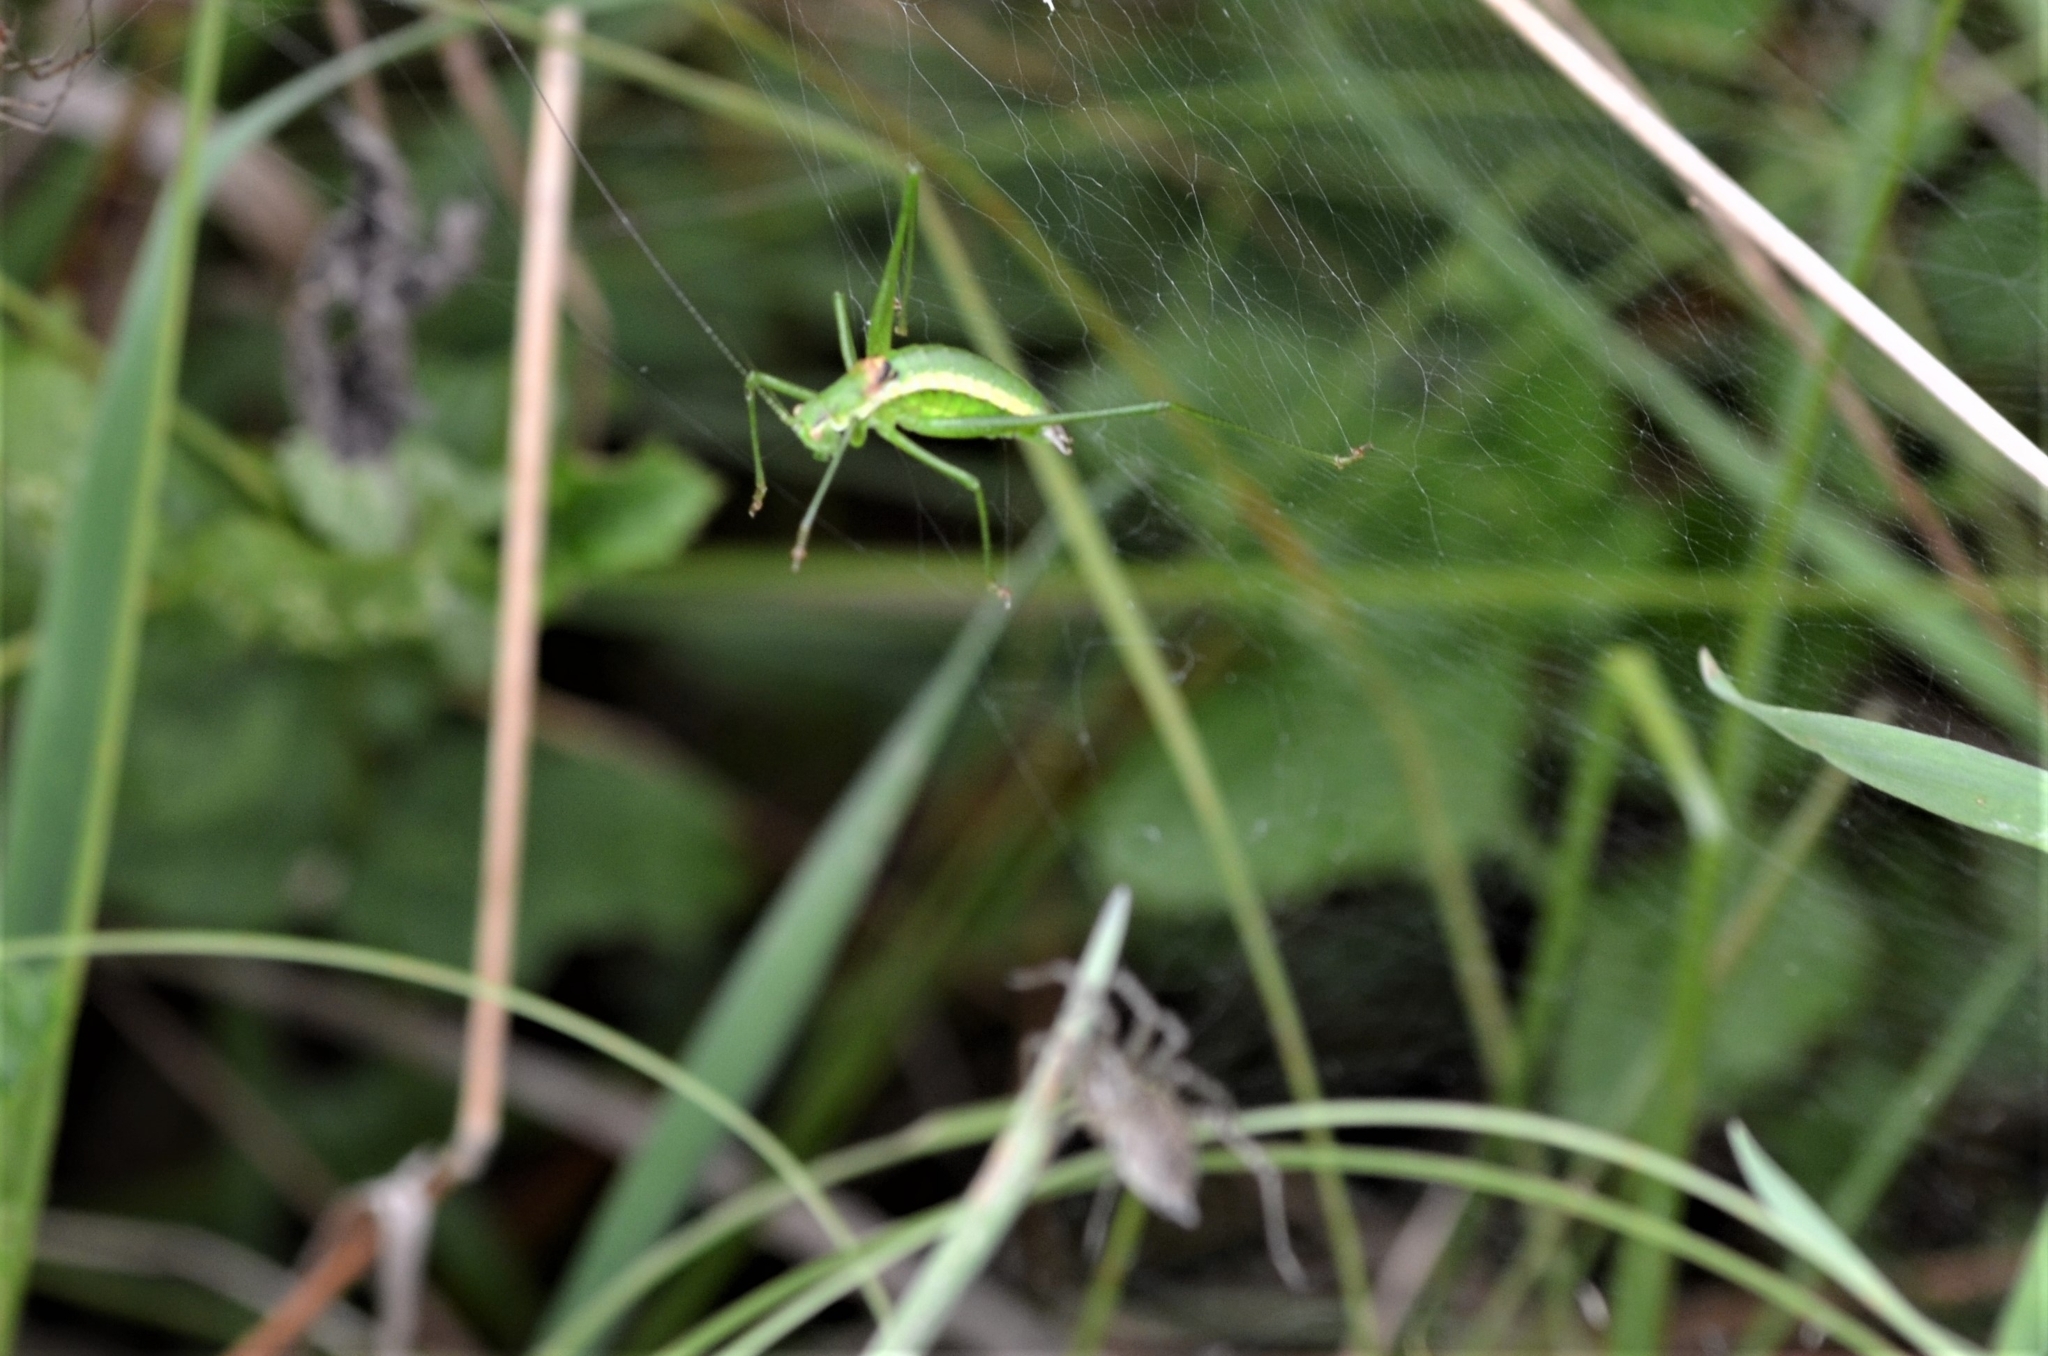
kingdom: Animalia
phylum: Arthropoda
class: Insecta
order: Orthoptera
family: Tettigoniidae
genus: Leptophyes
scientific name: Leptophyes boscii
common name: Balkan speckled bush-cricket
